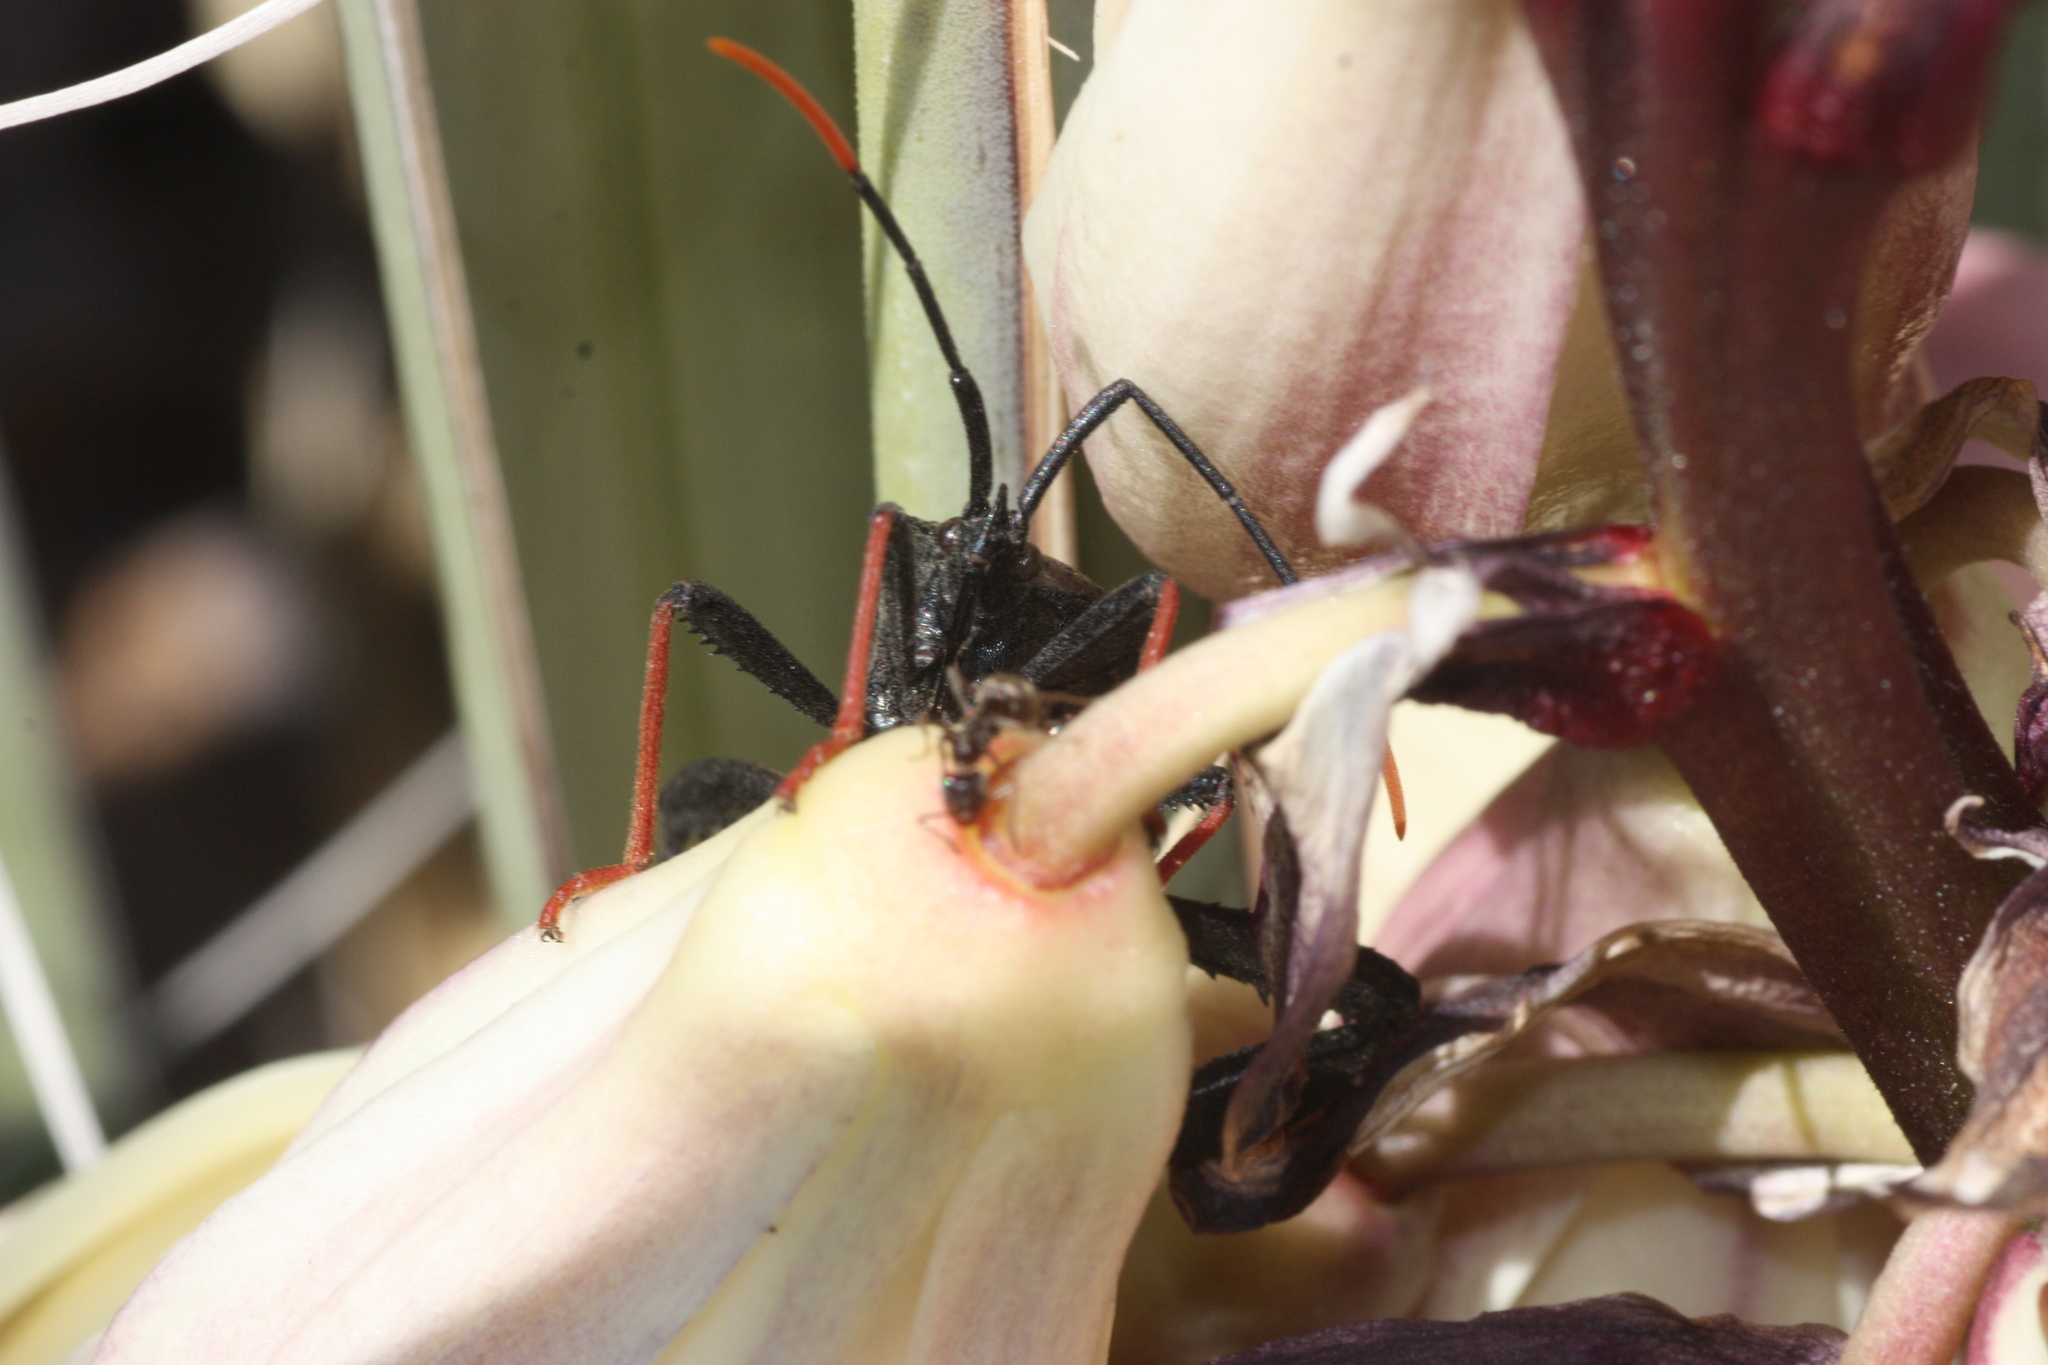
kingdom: Animalia
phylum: Arthropoda
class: Insecta
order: Hemiptera
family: Coreidae
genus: Acanthocephala
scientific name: Acanthocephala thomasi
